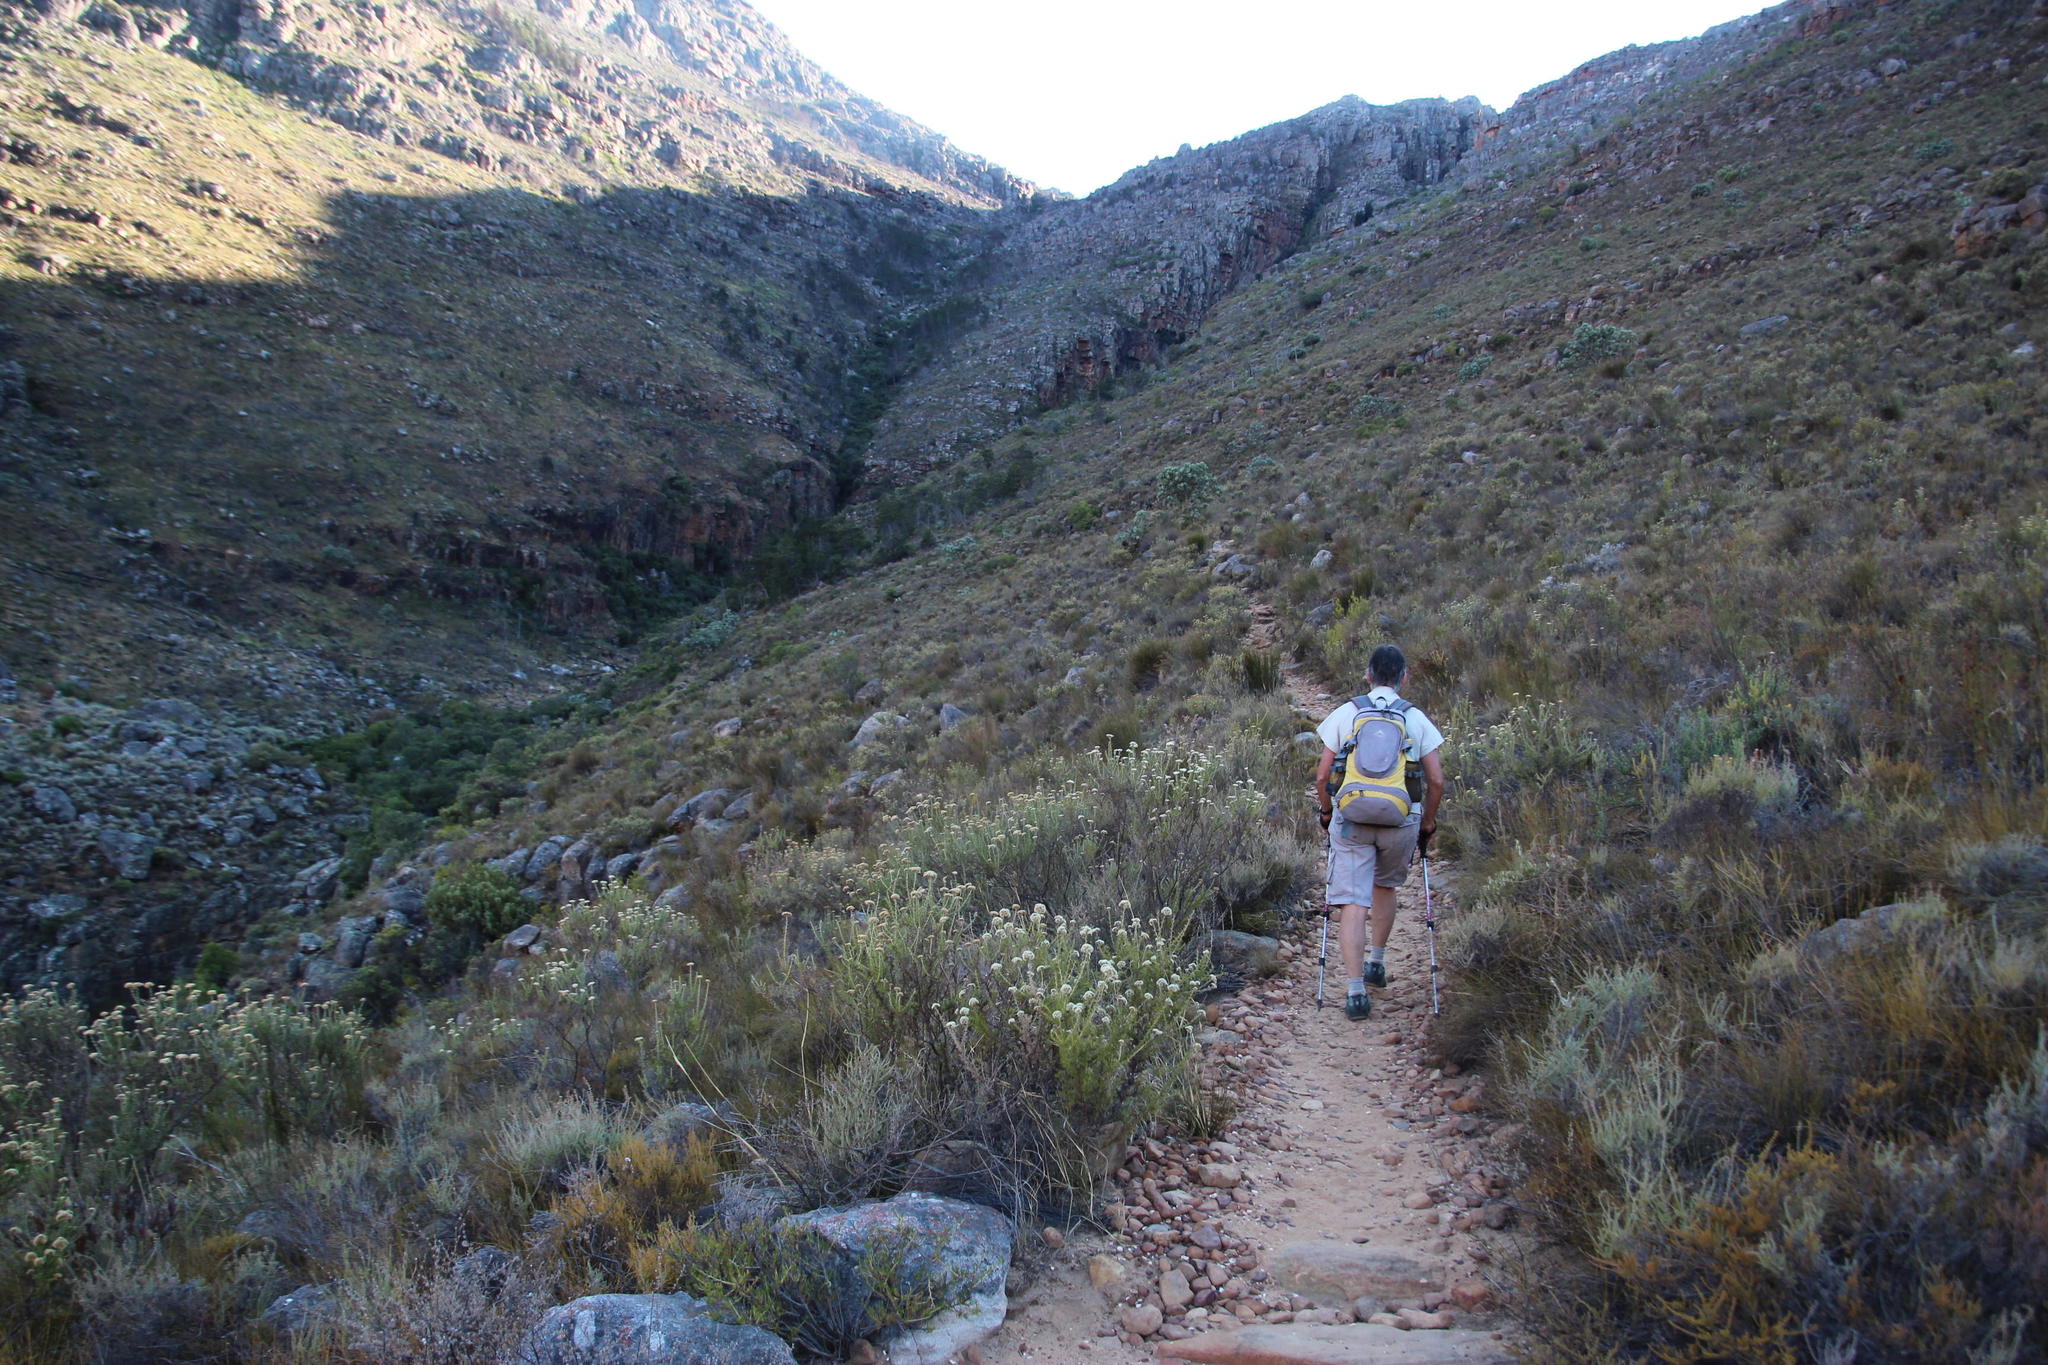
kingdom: Plantae
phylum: Tracheophyta
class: Magnoliopsida
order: Asterales
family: Asteraceae
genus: Metalasia
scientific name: Metalasia dregeana
